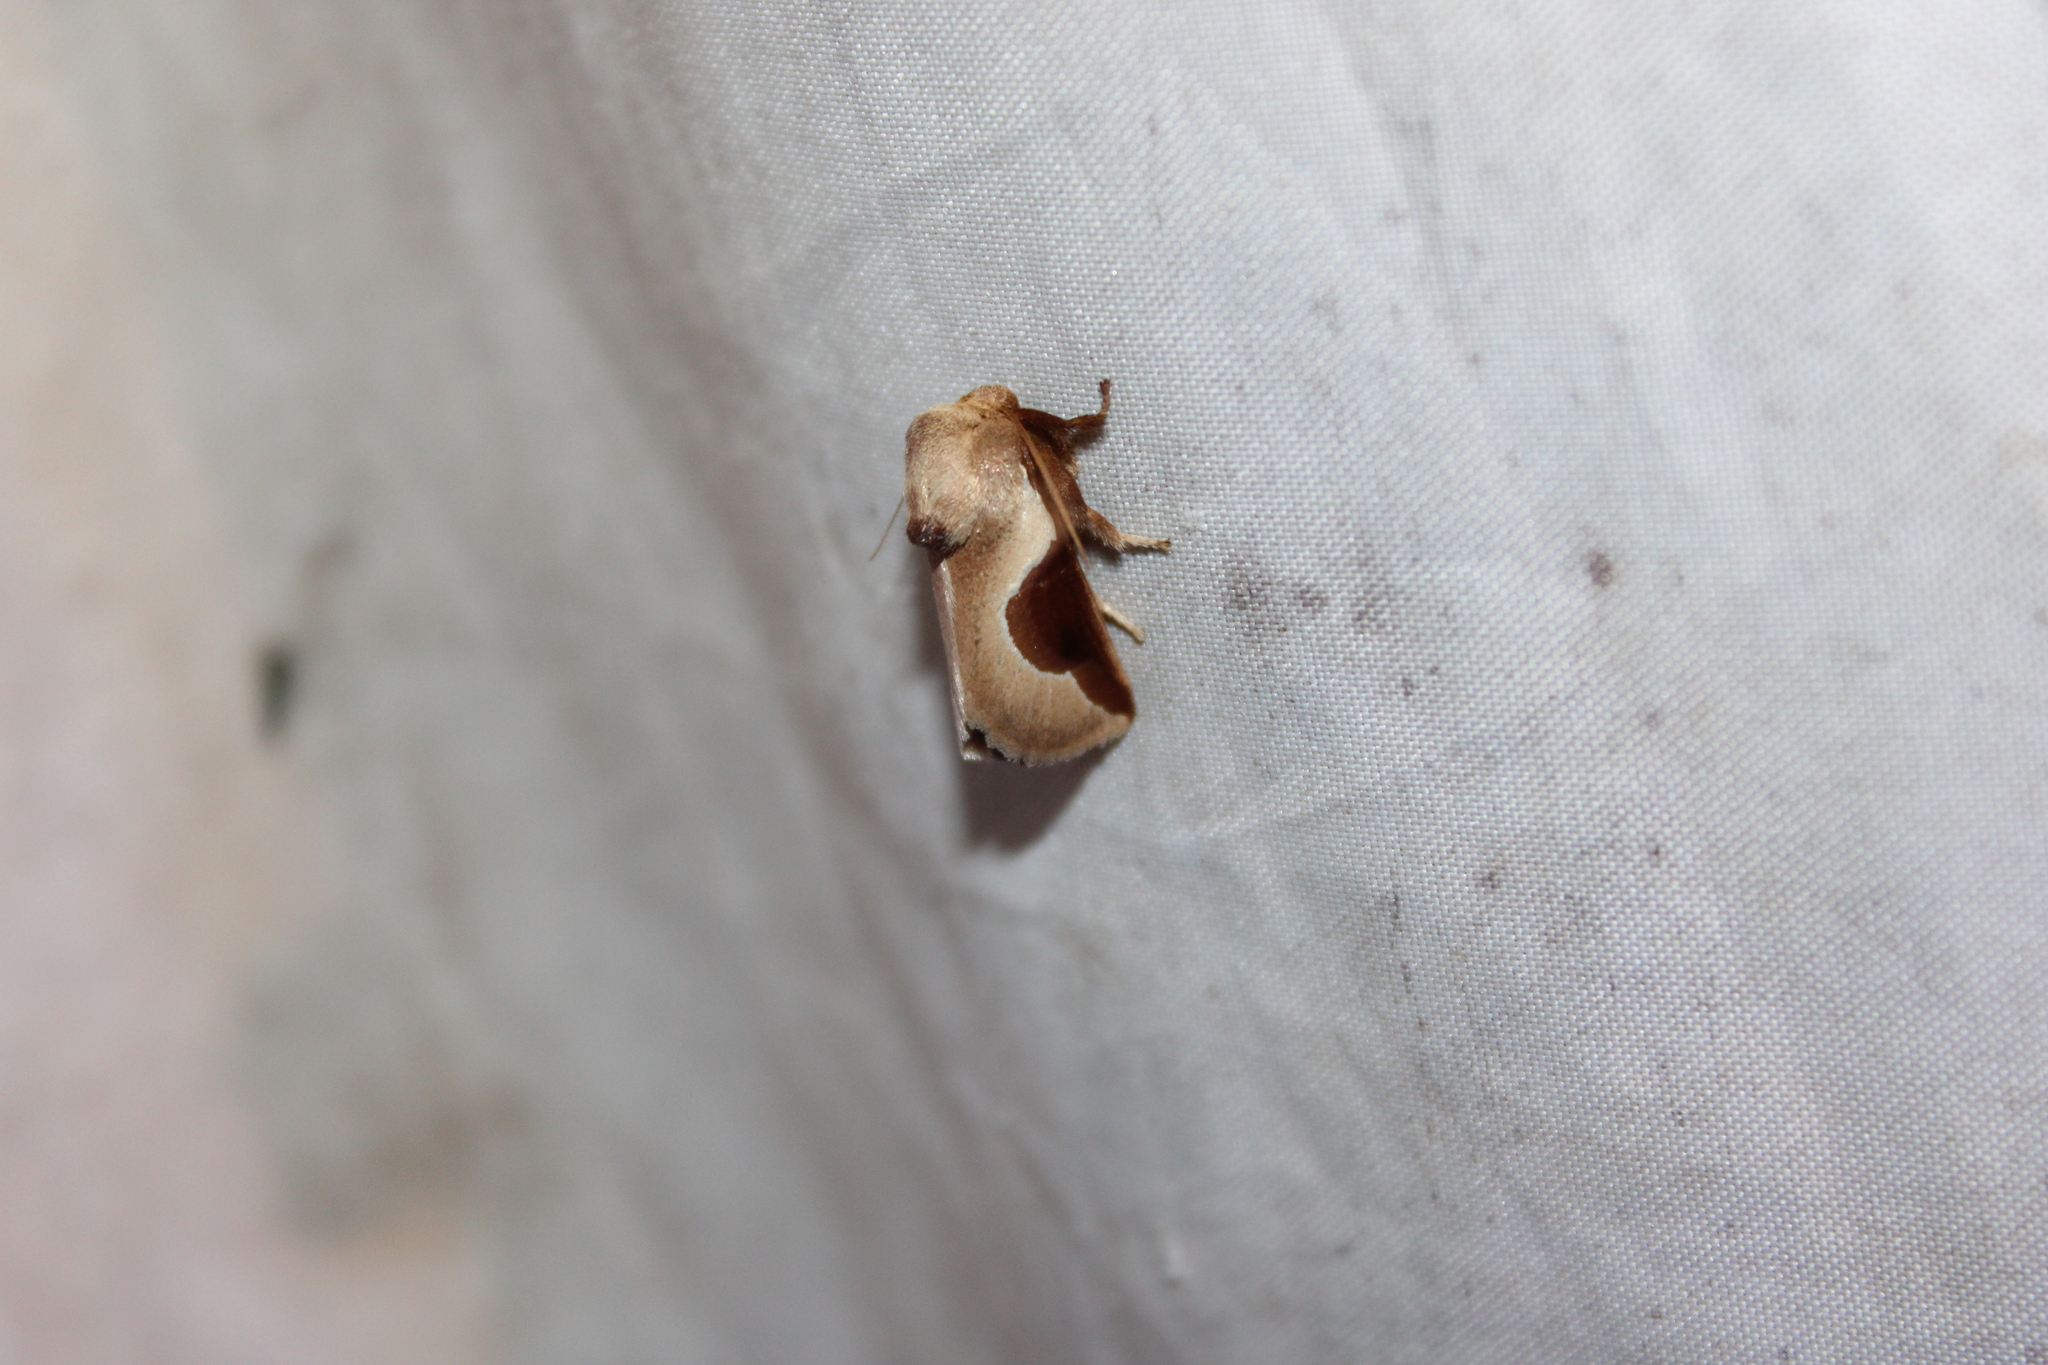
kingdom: Animalia
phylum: Arthropoda
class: Insecta
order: Lepidoptera
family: Limacodidae
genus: Prolimacodes
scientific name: Prolimacodes badia
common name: Skiff moth
